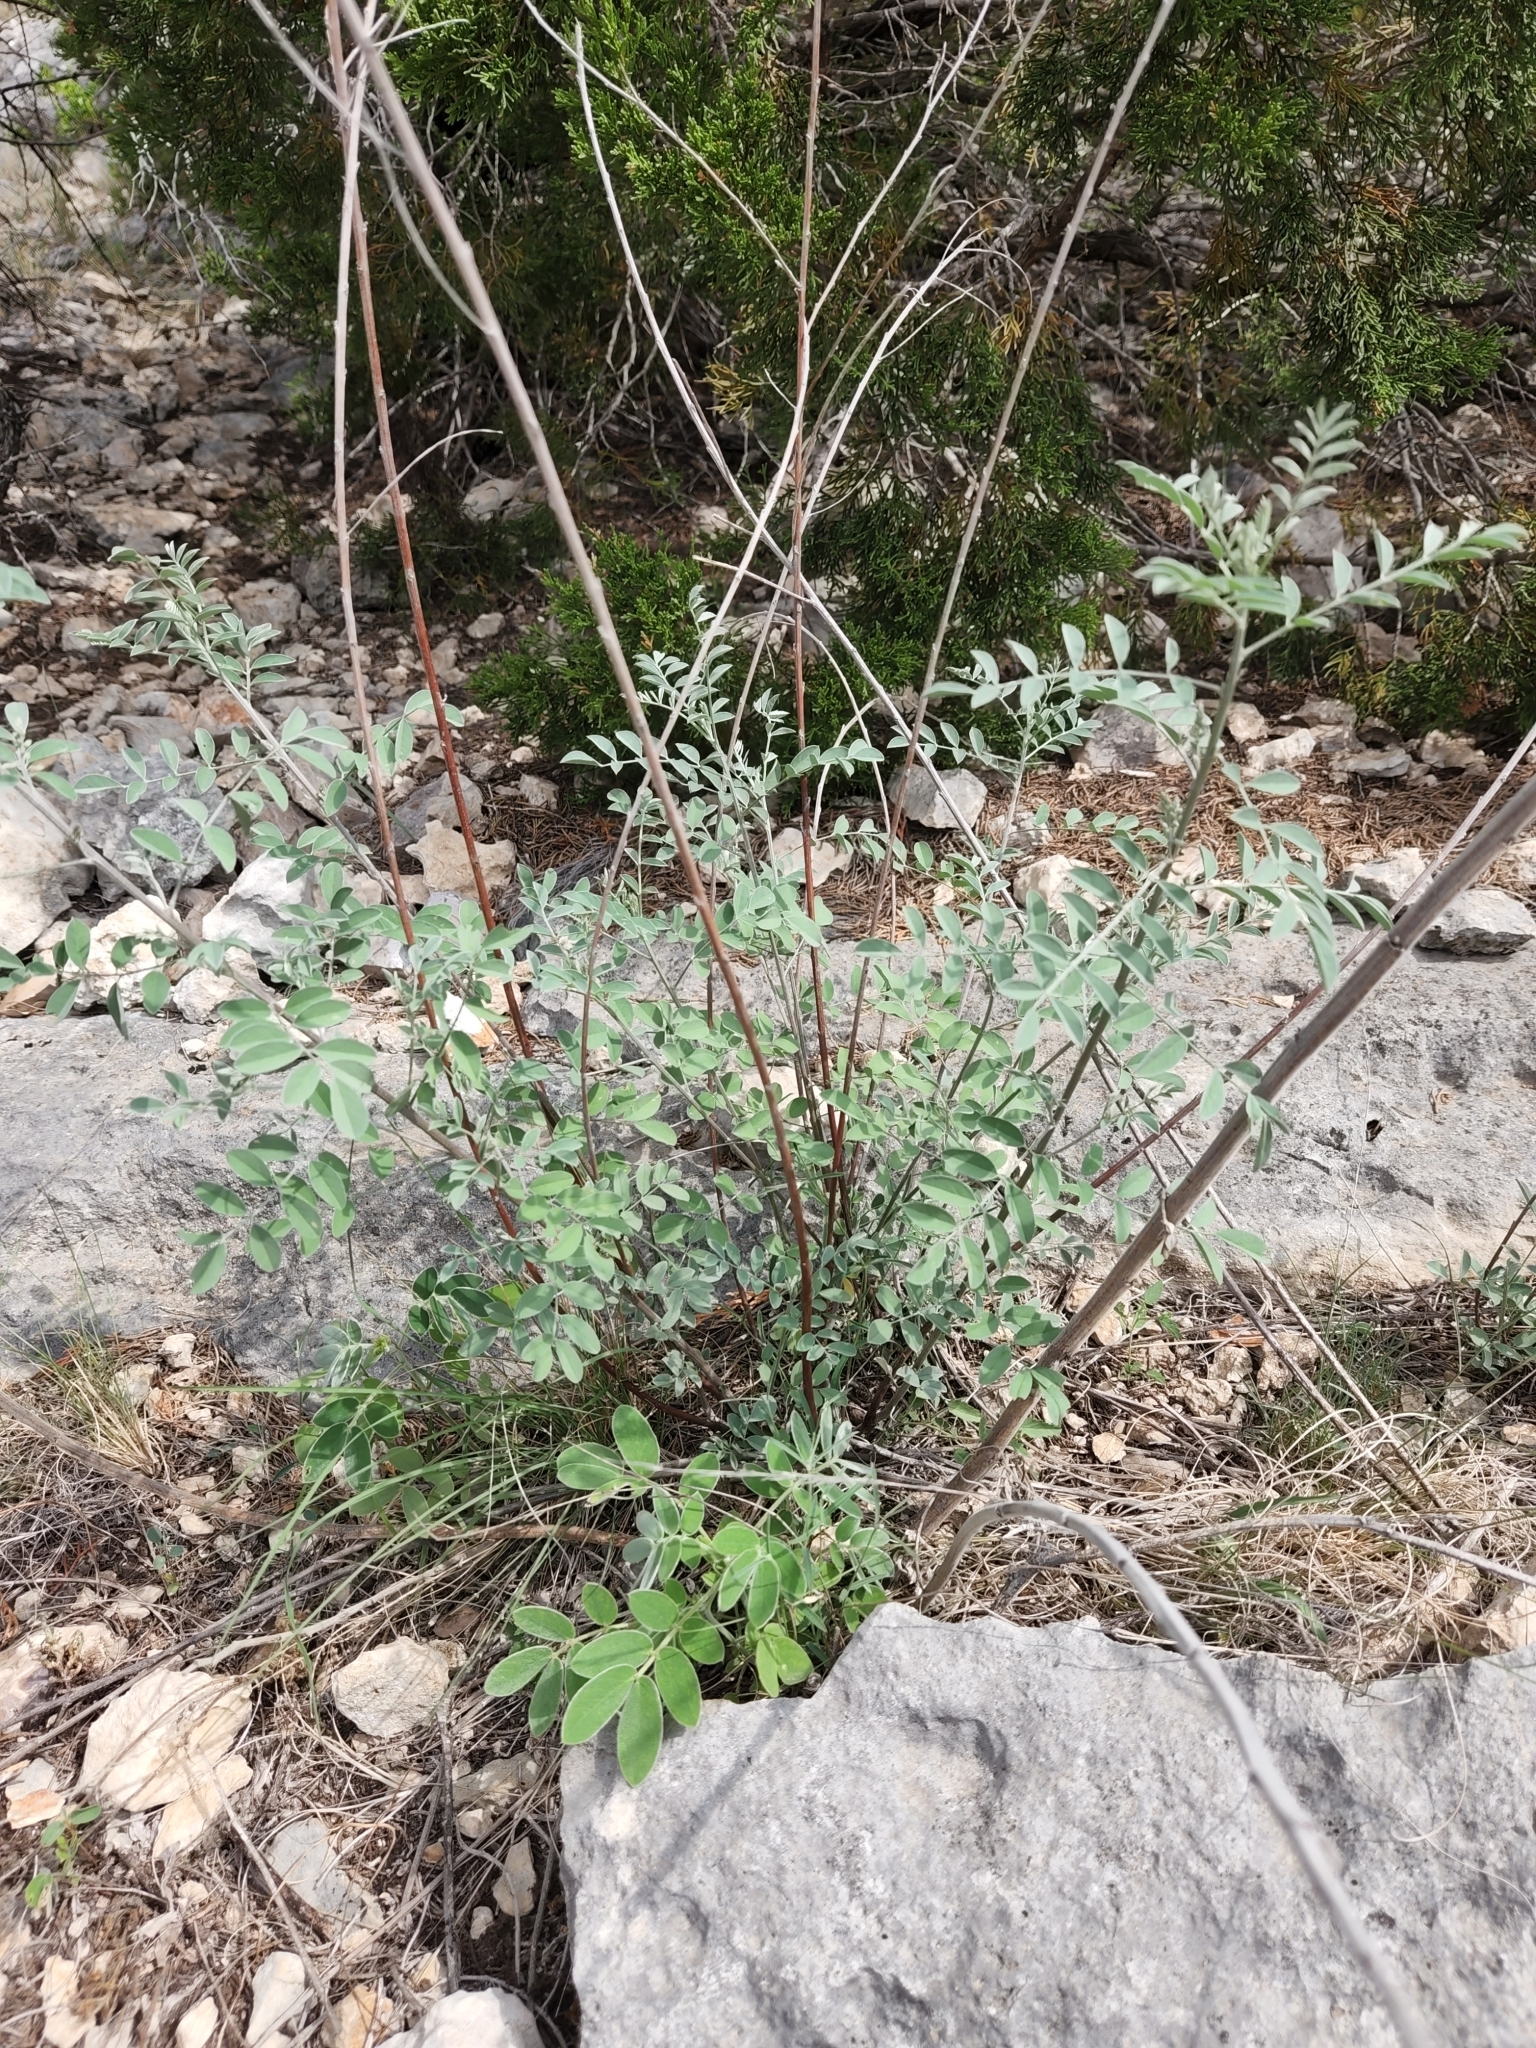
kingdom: Plantae
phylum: Tracheophyta
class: Magnoliopsida
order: Fabales
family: Fabaceae
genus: Indigofera
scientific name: Indigofera lindheimeriana
